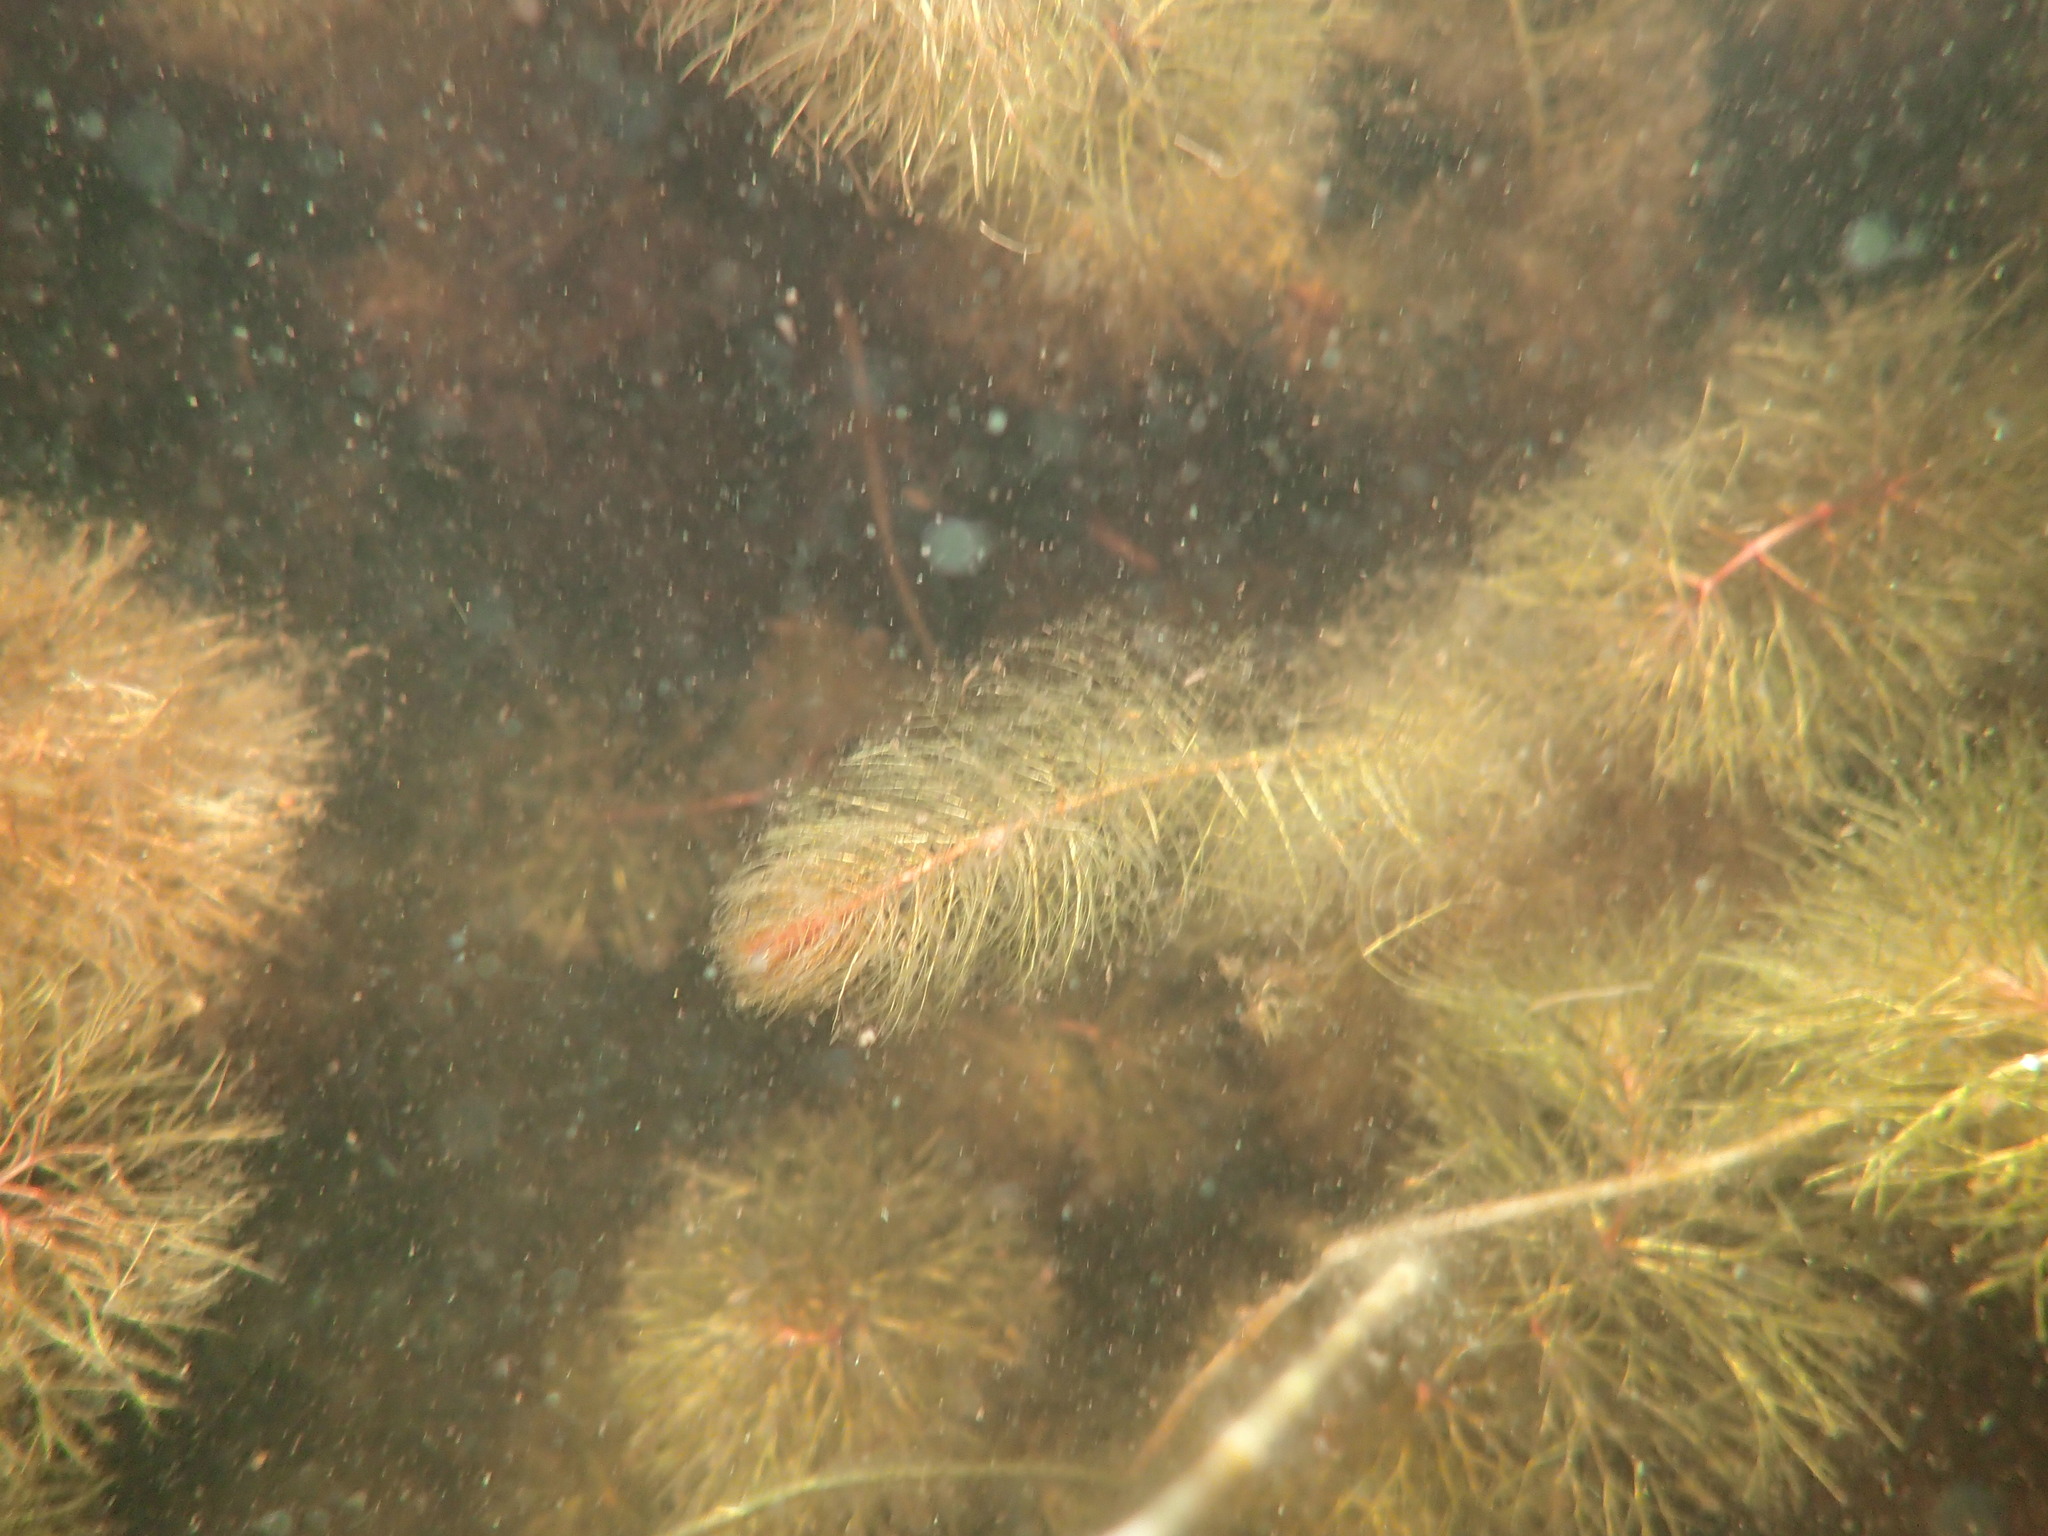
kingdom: Plantae
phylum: Tracheophyta
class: Magnoliopsida
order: Saxifragales
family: Haloragaceae
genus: Myriophyllum
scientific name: Myriophyllum farwellii
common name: Farwell's water-milfoil
